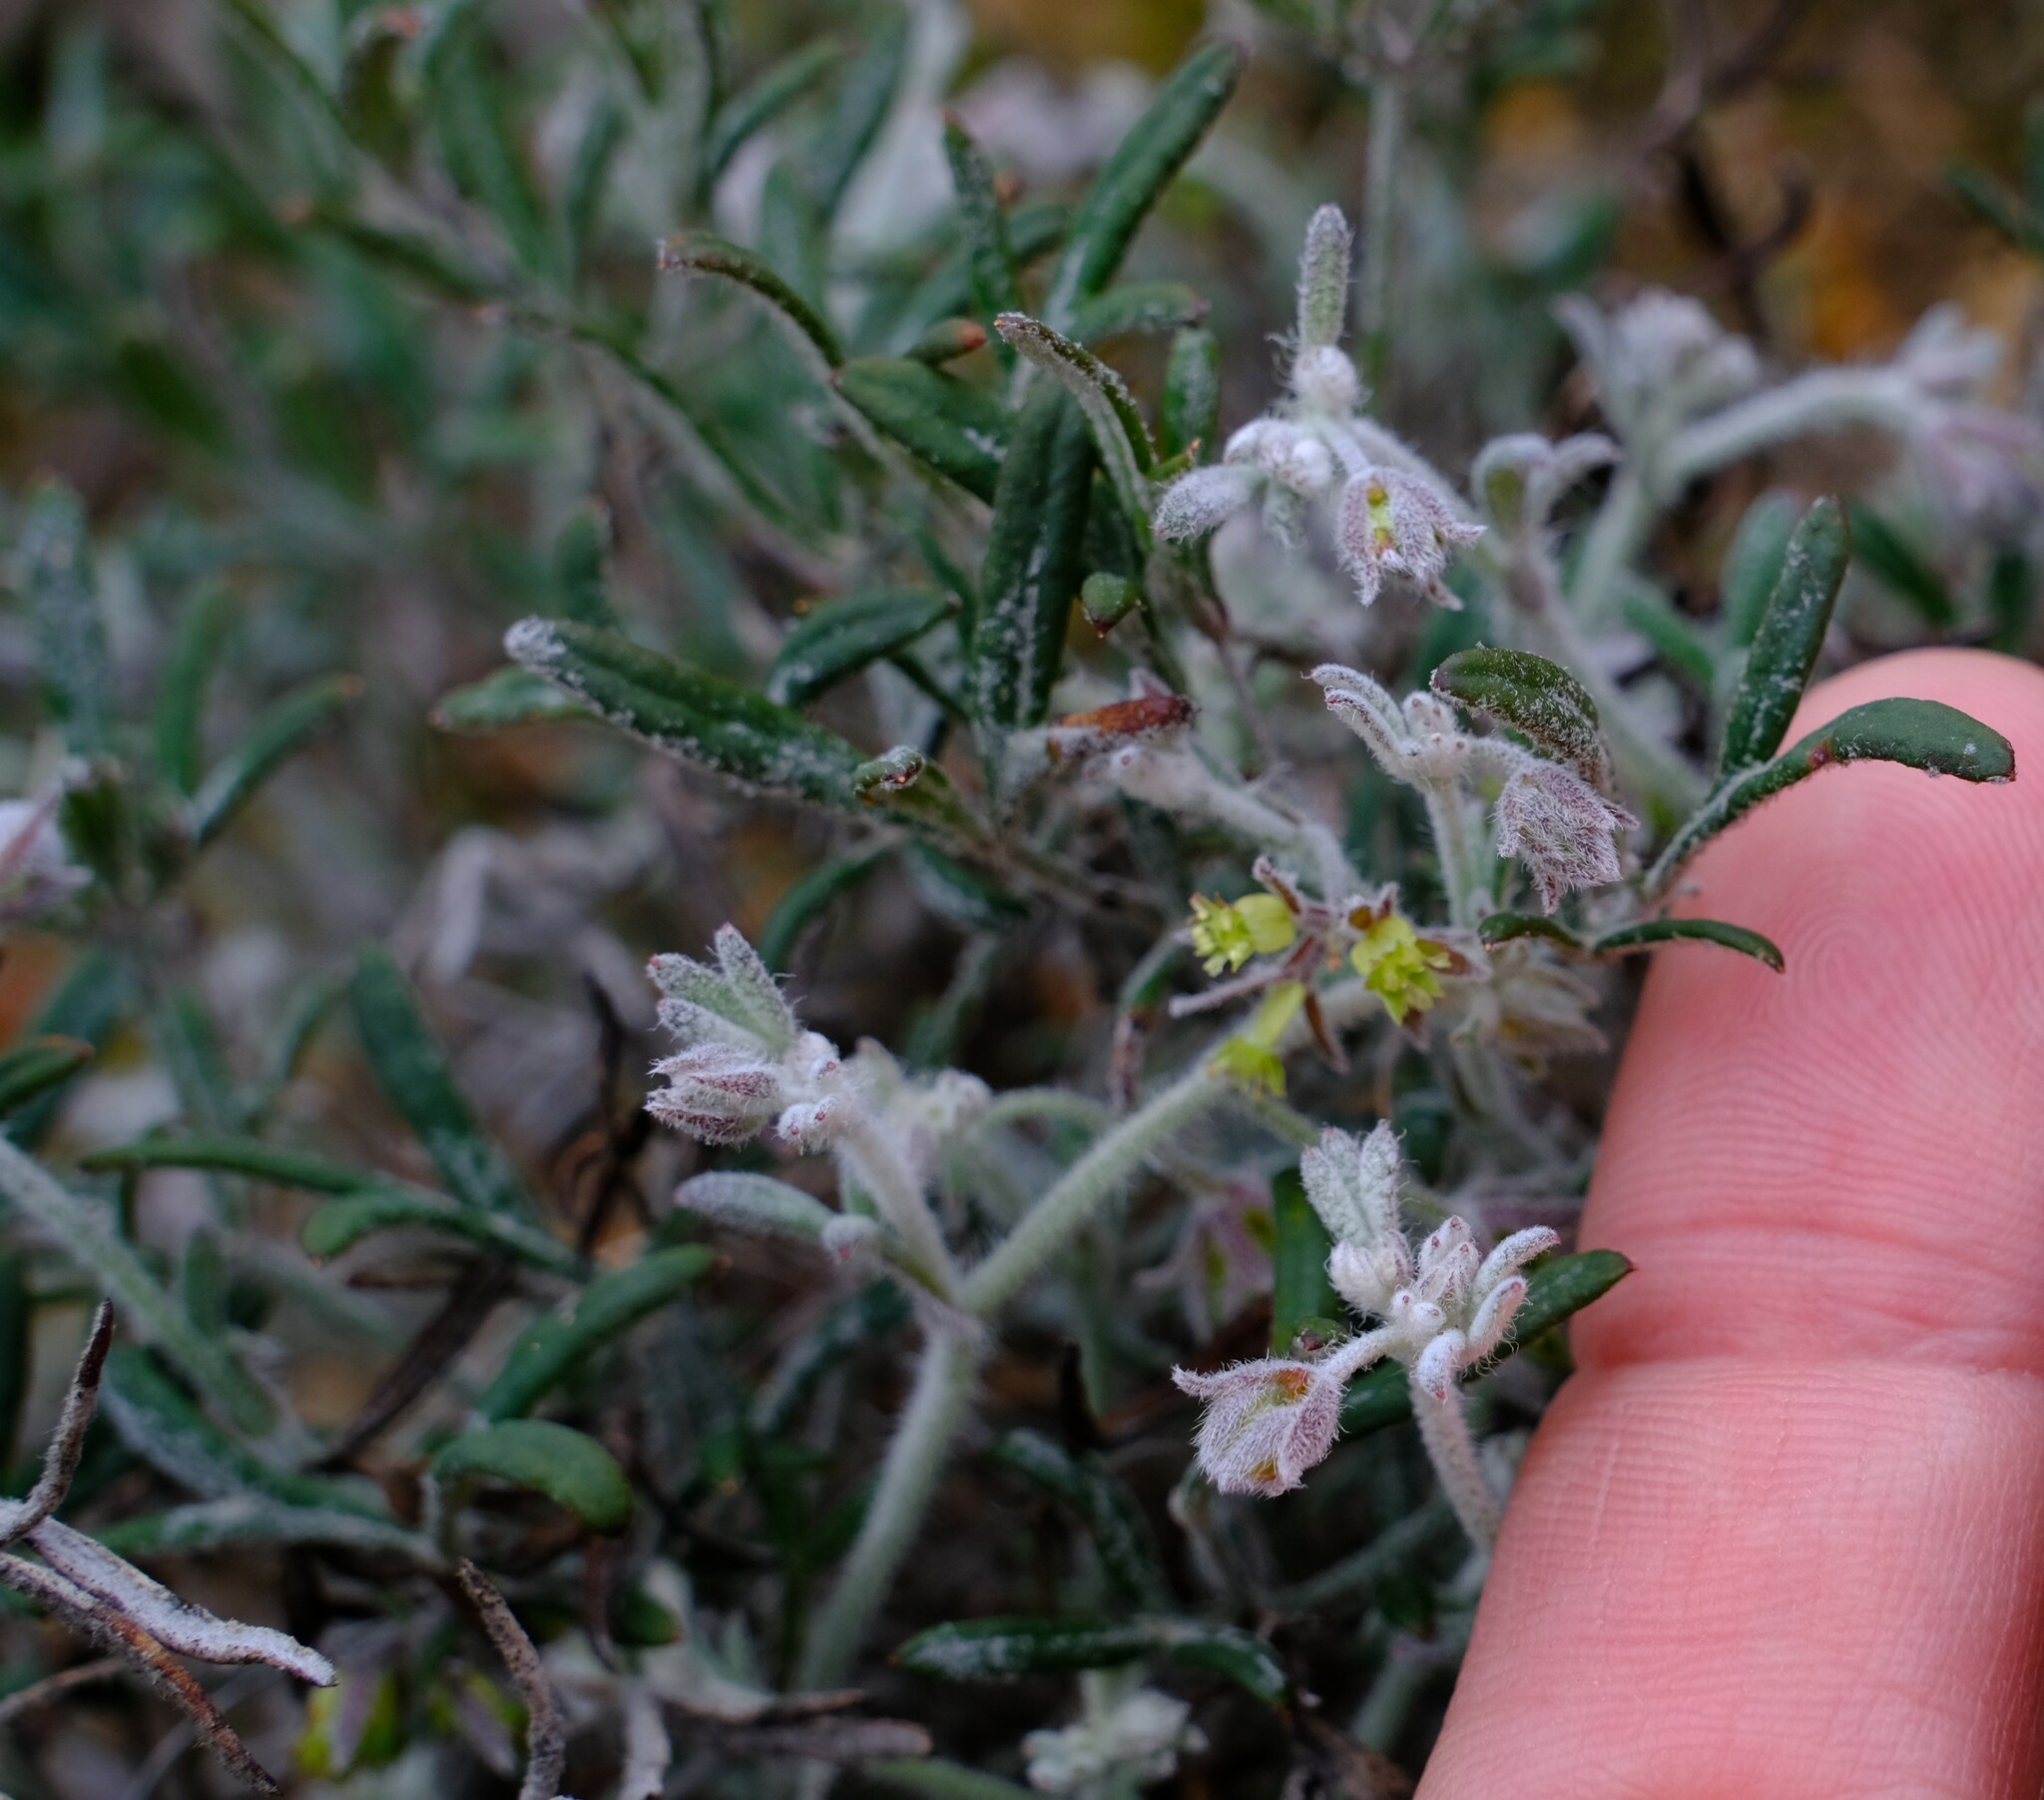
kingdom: Plantae
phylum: Tracheophyta
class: Magnoliopsida
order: Apiales
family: Apiaceae
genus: Xanthosia
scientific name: Xanthosia huegelii
